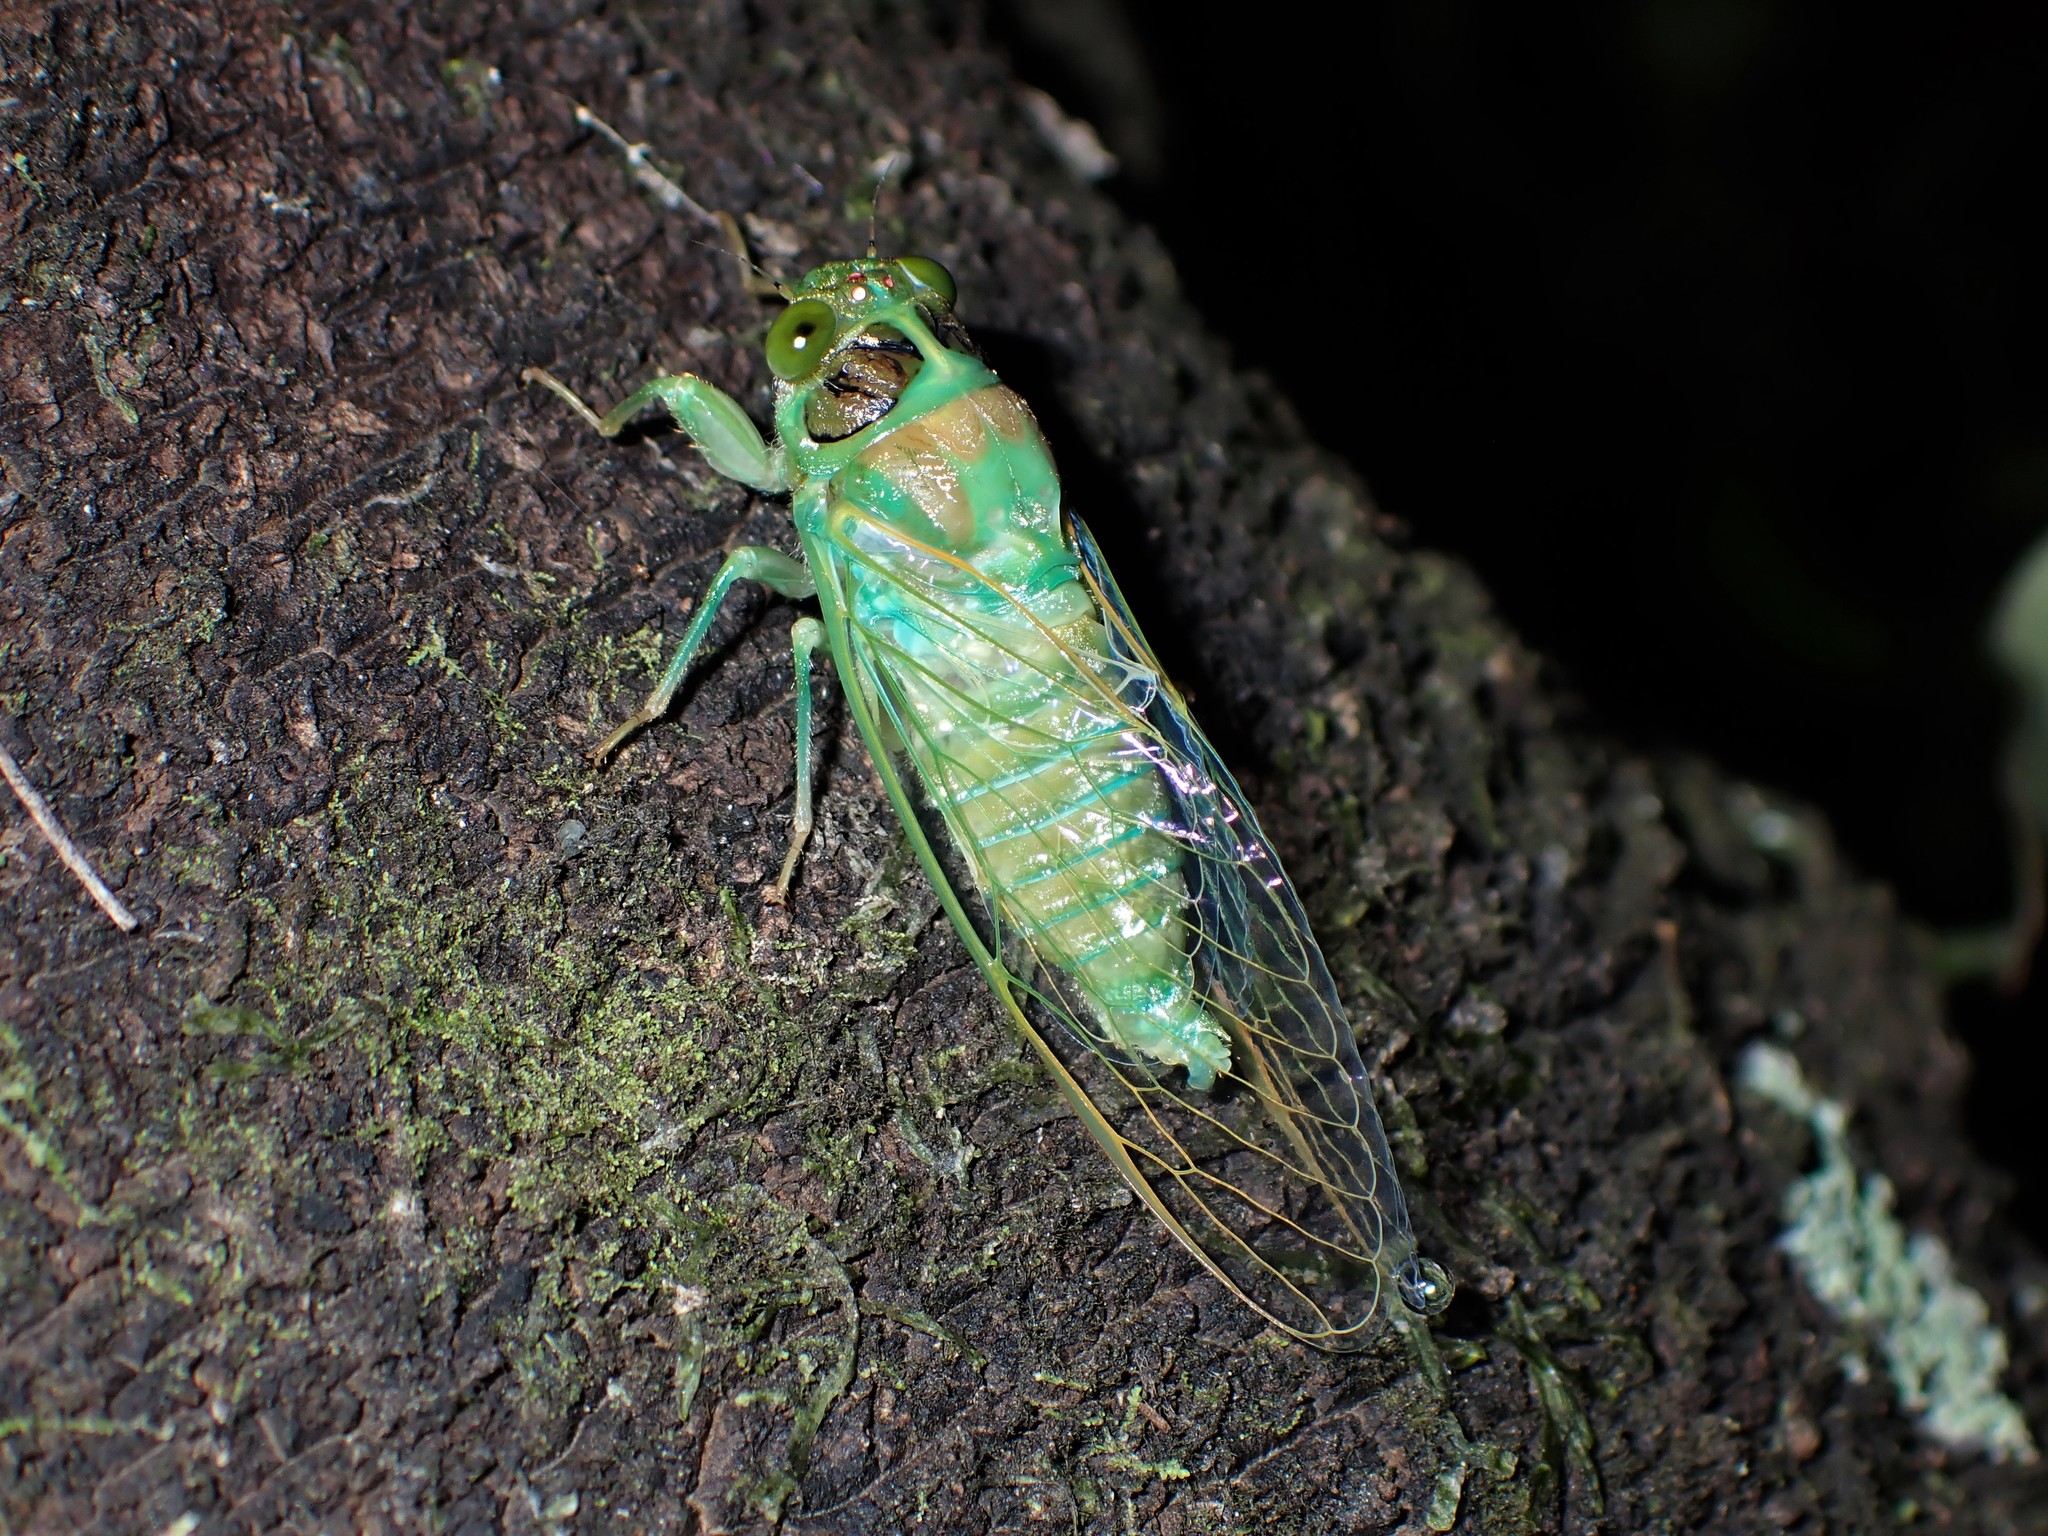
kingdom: Animalia
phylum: Arthropoda
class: Insecta
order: Hemiptera
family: Cicadidae
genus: Amphipsalta
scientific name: Amphipsalta zelandica
